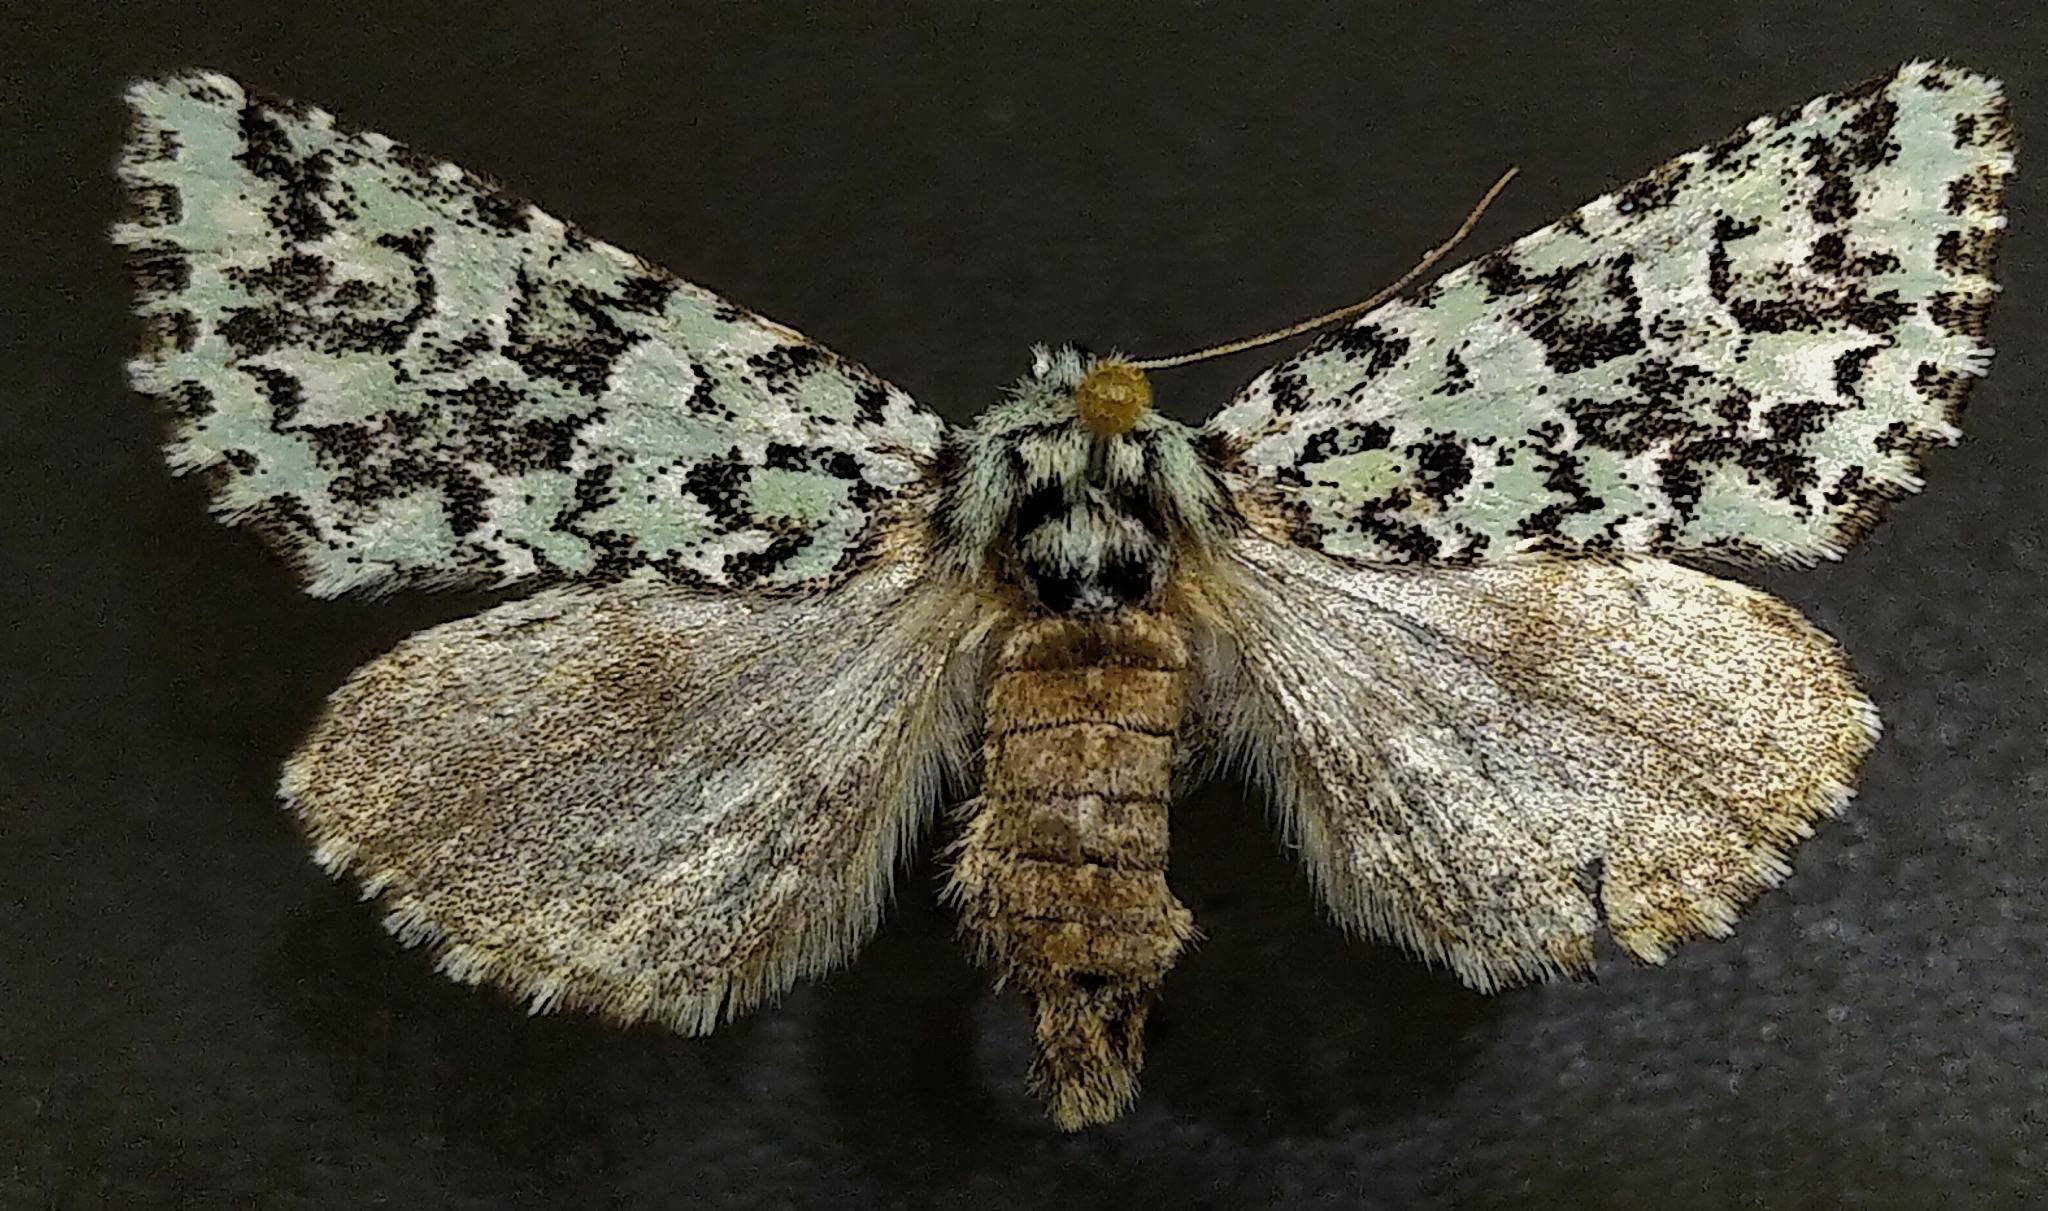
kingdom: Animalia
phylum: Arthropoda
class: Insecta
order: Lepidoptera
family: Noctuidae
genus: Feralia
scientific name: Feralia comstocki
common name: Comstock's sallow
